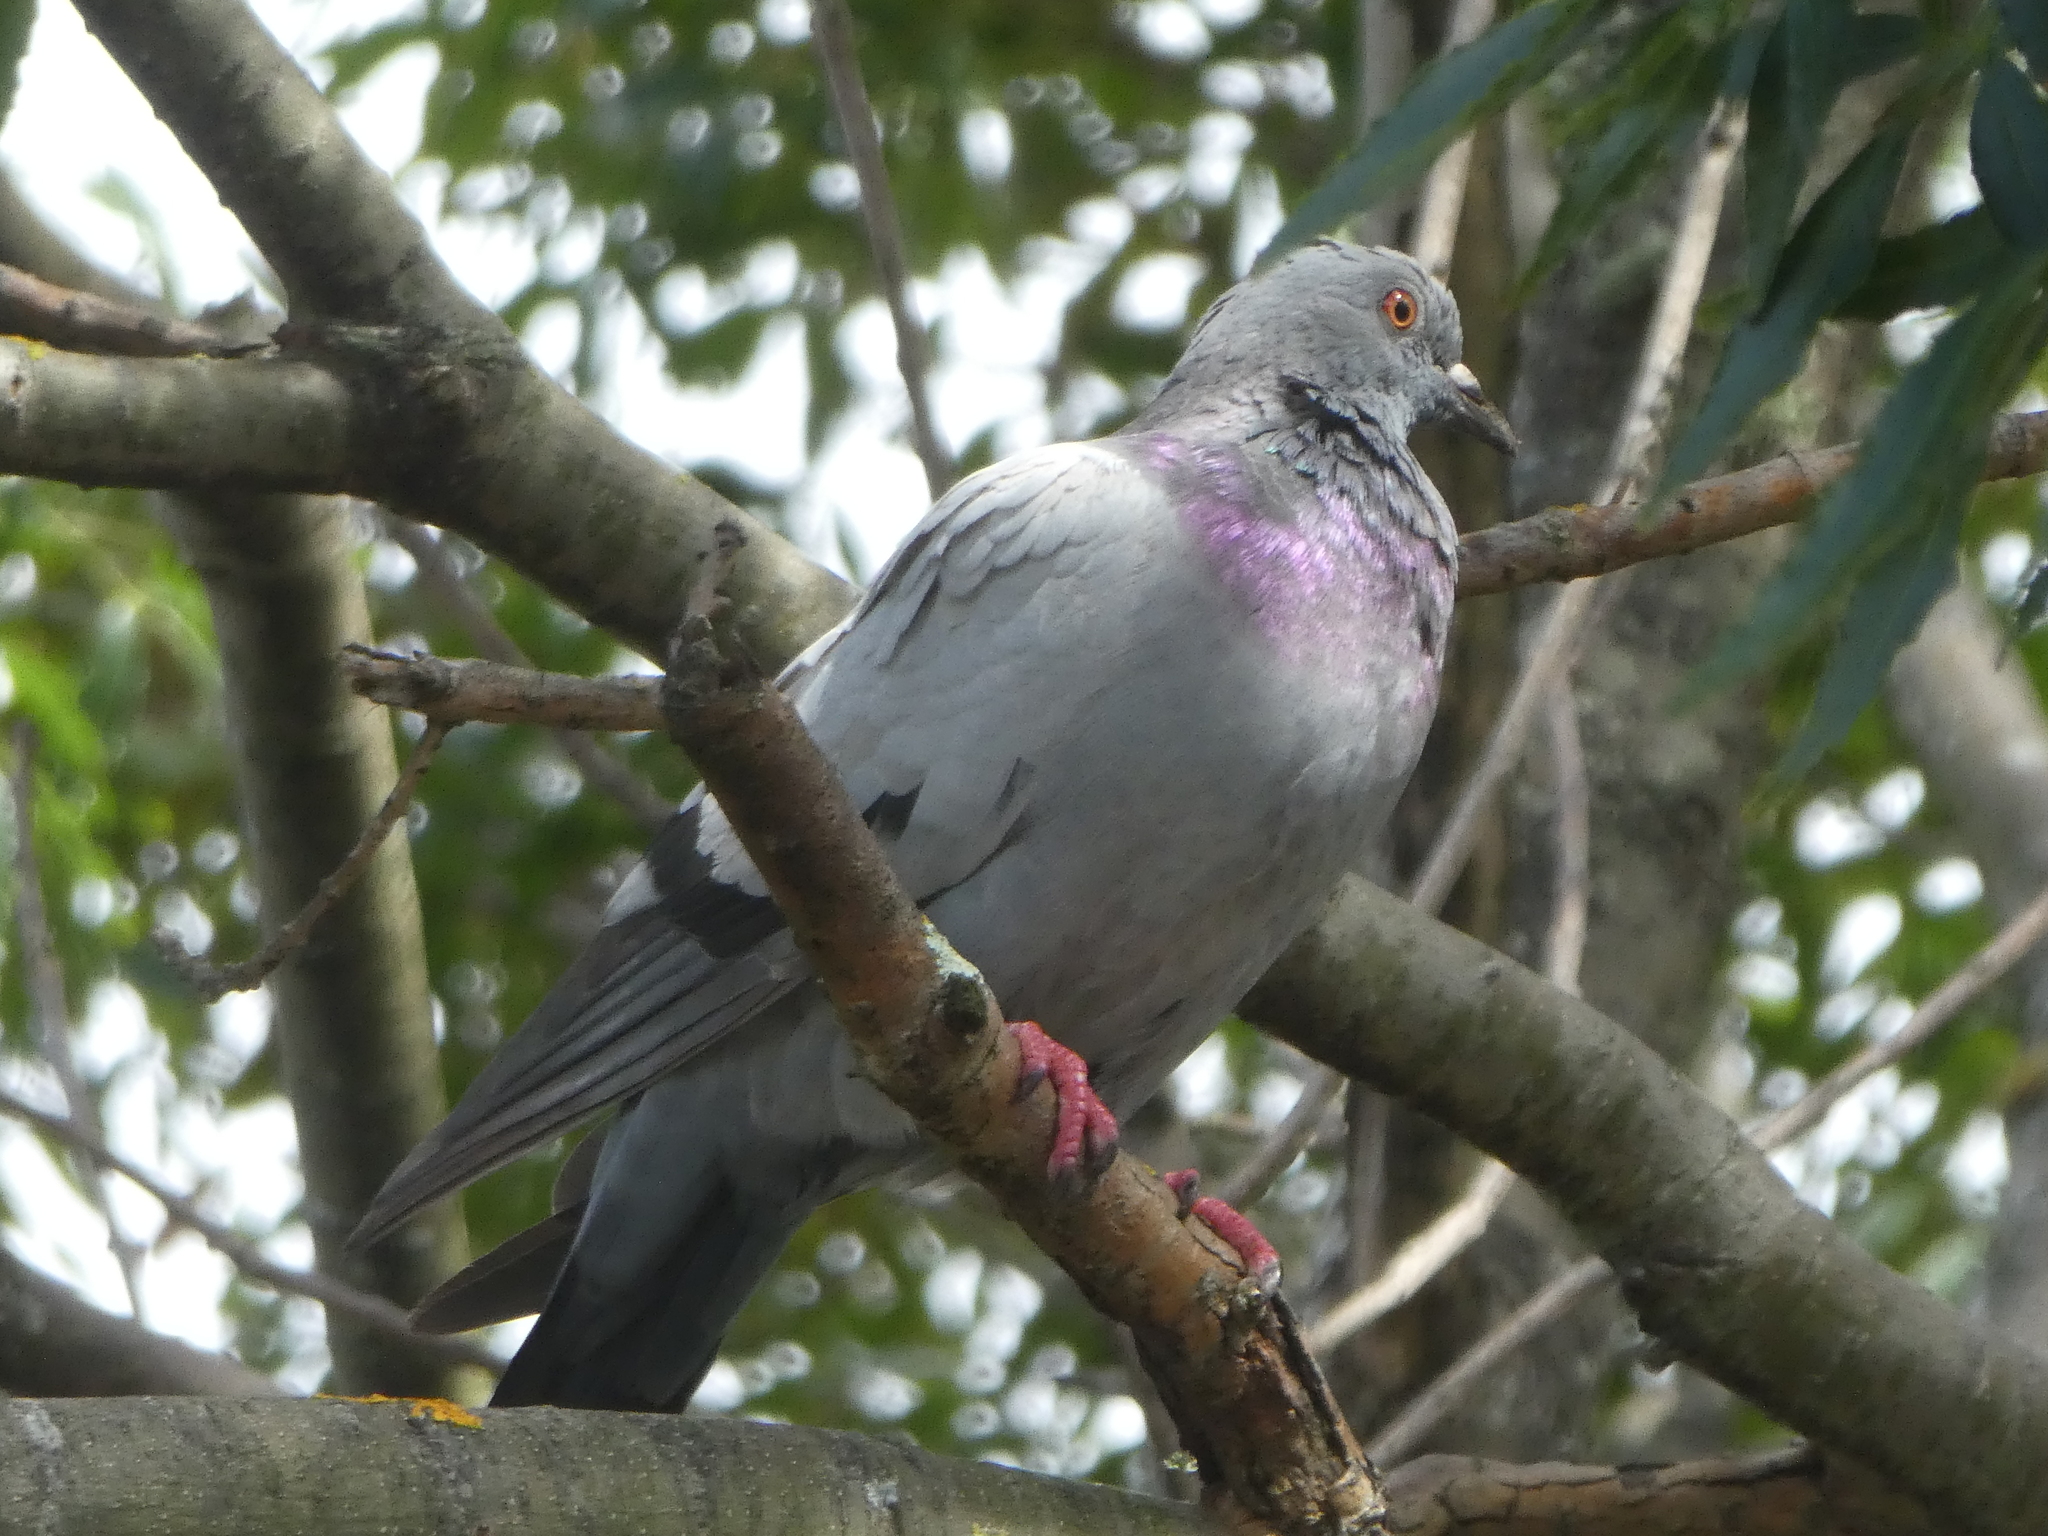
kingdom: Animalia
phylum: Chordata
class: Aves
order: Columbiformes
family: Columbidae
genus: Columba
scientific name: Columba livia
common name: Rock pigeon
